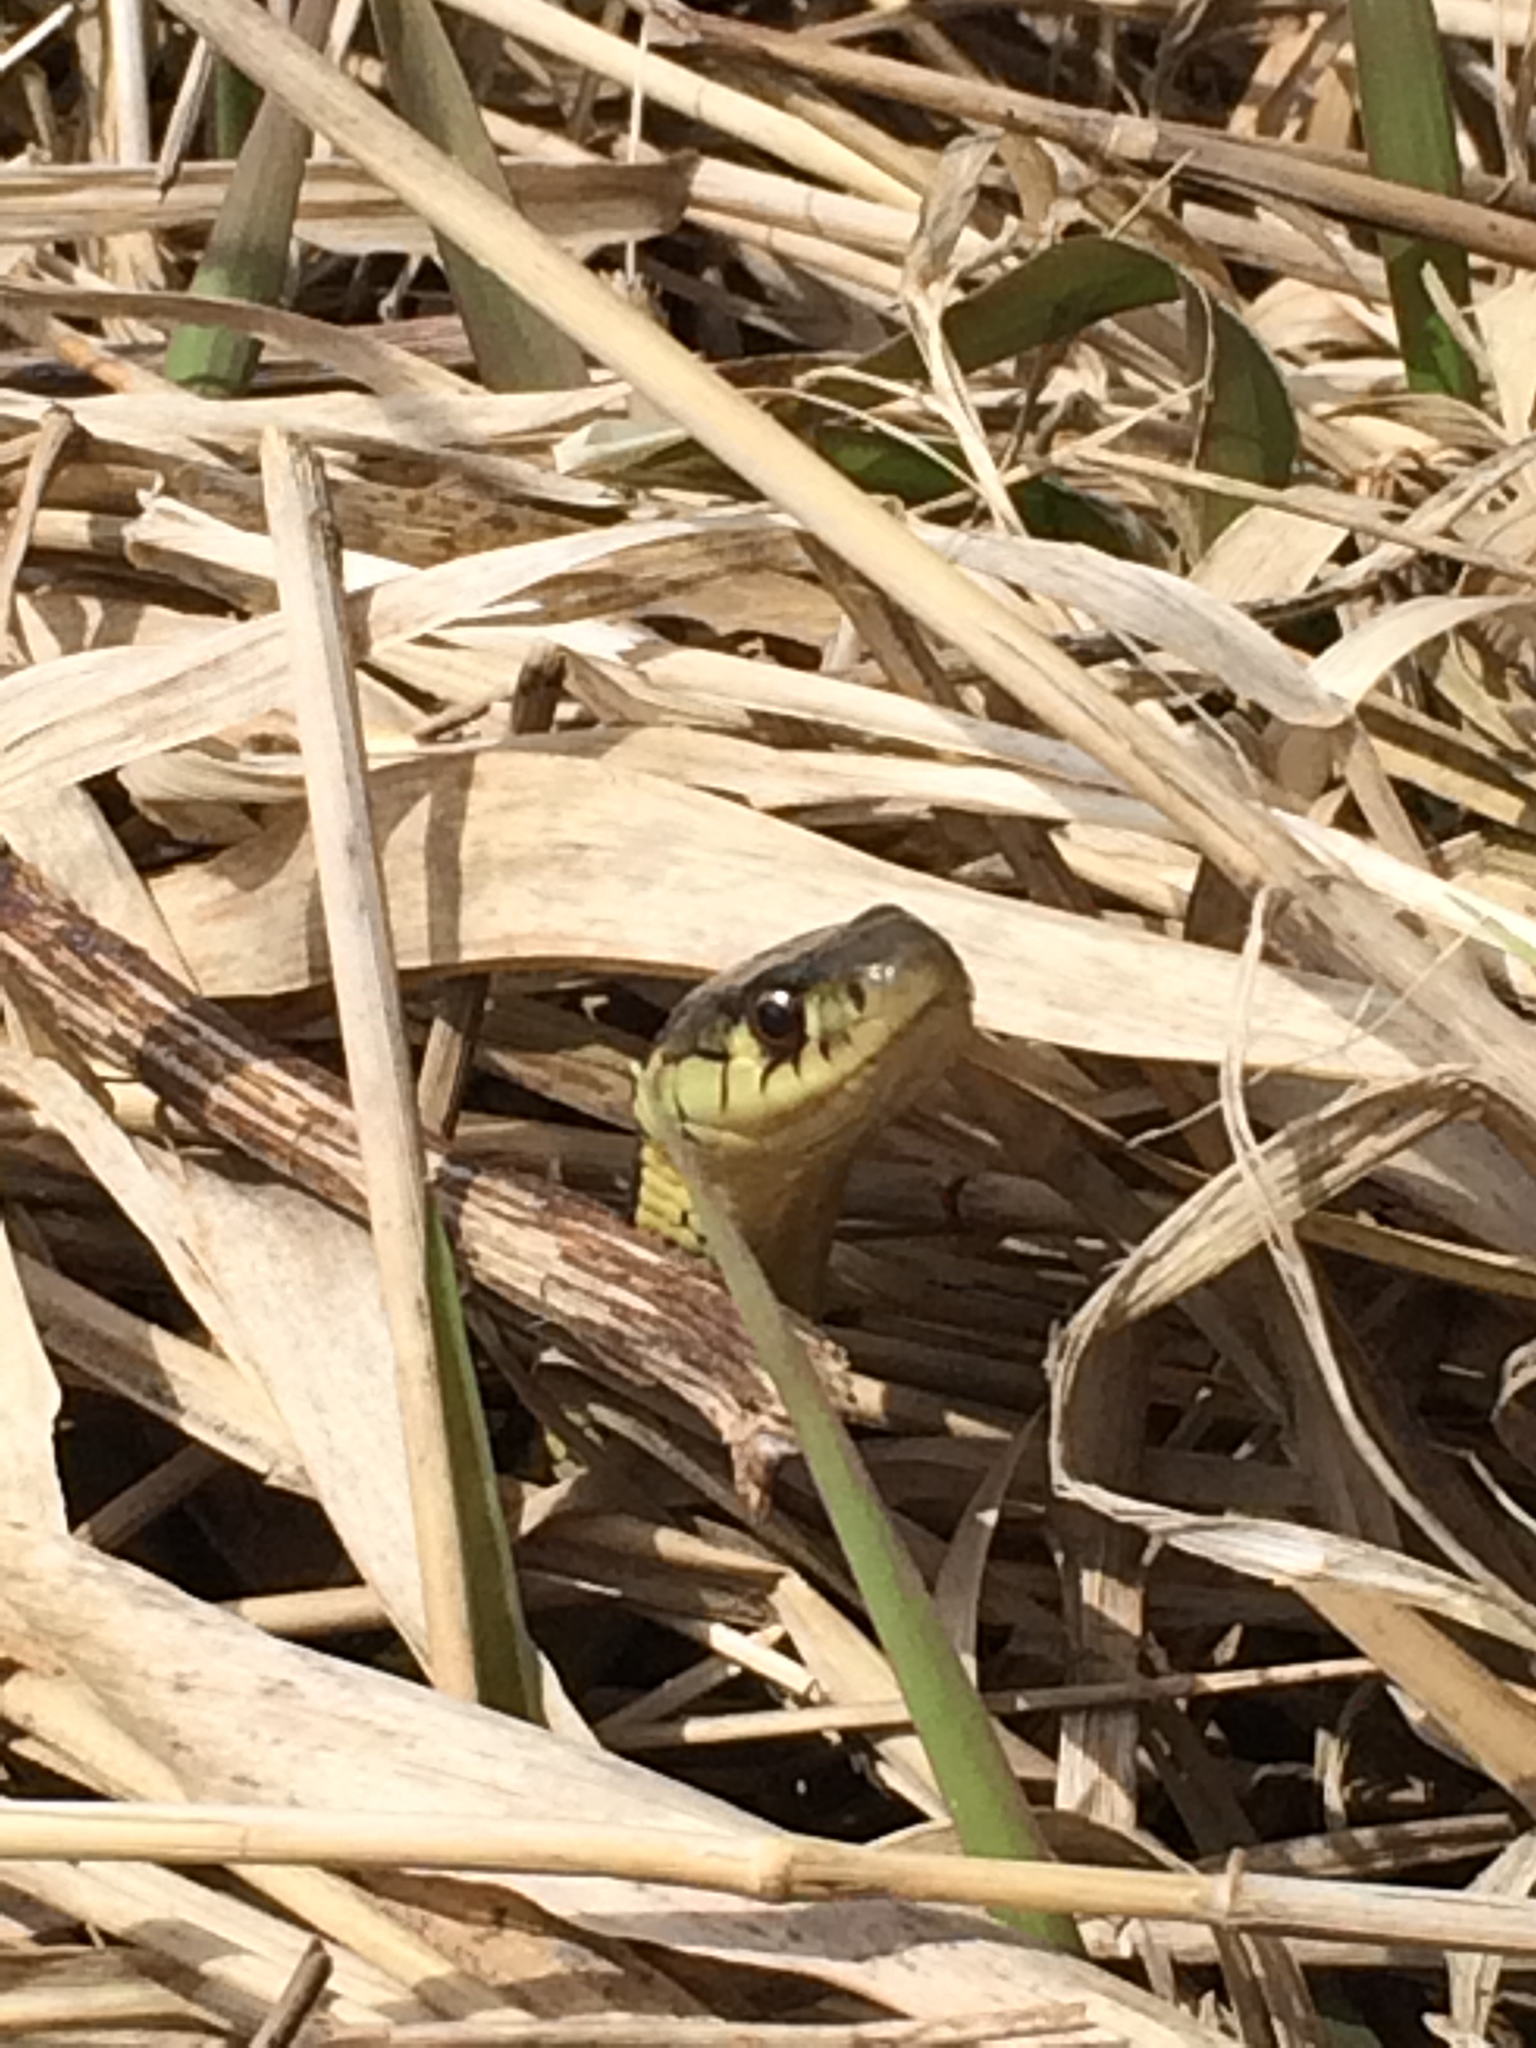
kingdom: Animalia
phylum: Chordata
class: Squamata
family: Colubridae
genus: Thamnophis
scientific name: Thamnophis sirtalis
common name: Common garter snake
